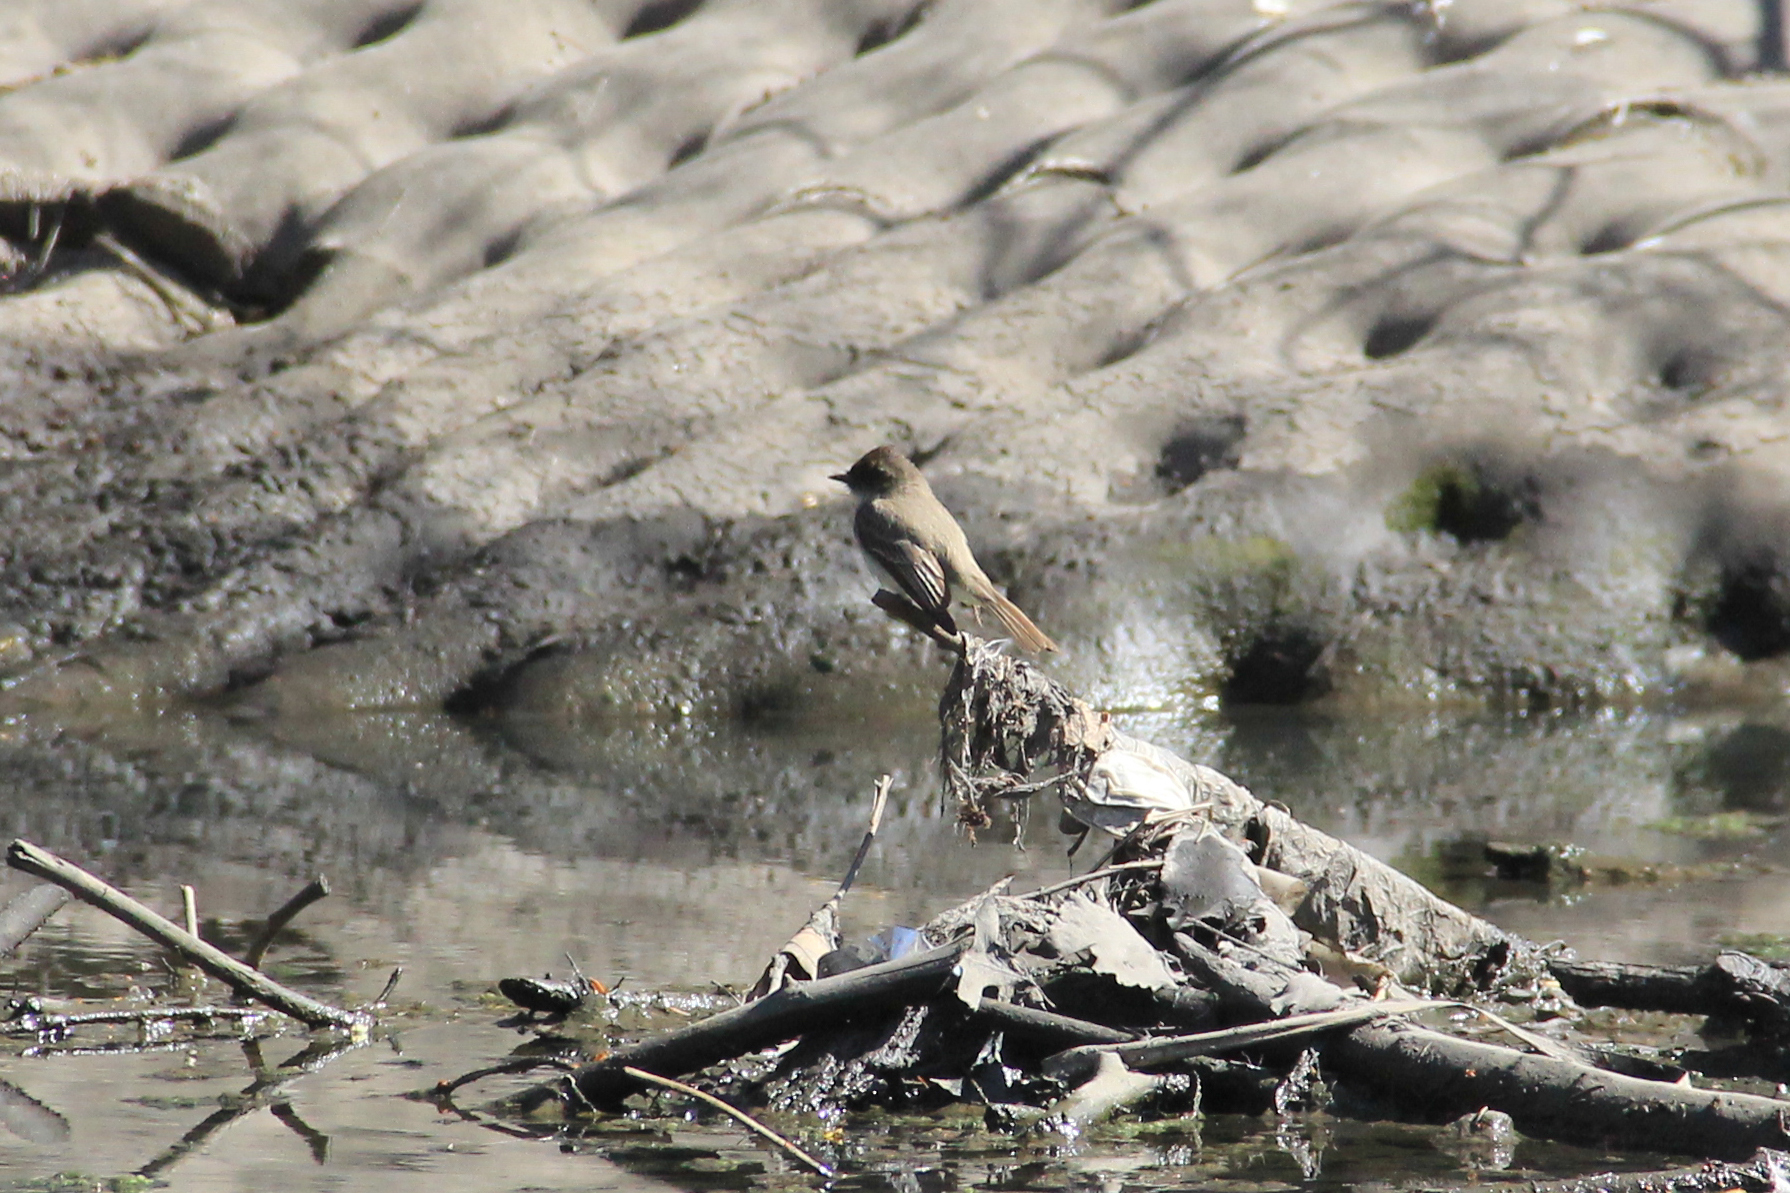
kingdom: Animalia
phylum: Chordata
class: Aves
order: Passeriformes
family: Tyrannidae
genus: Sayornis
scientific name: Sayornis phoebe
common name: Eastern phoebe
